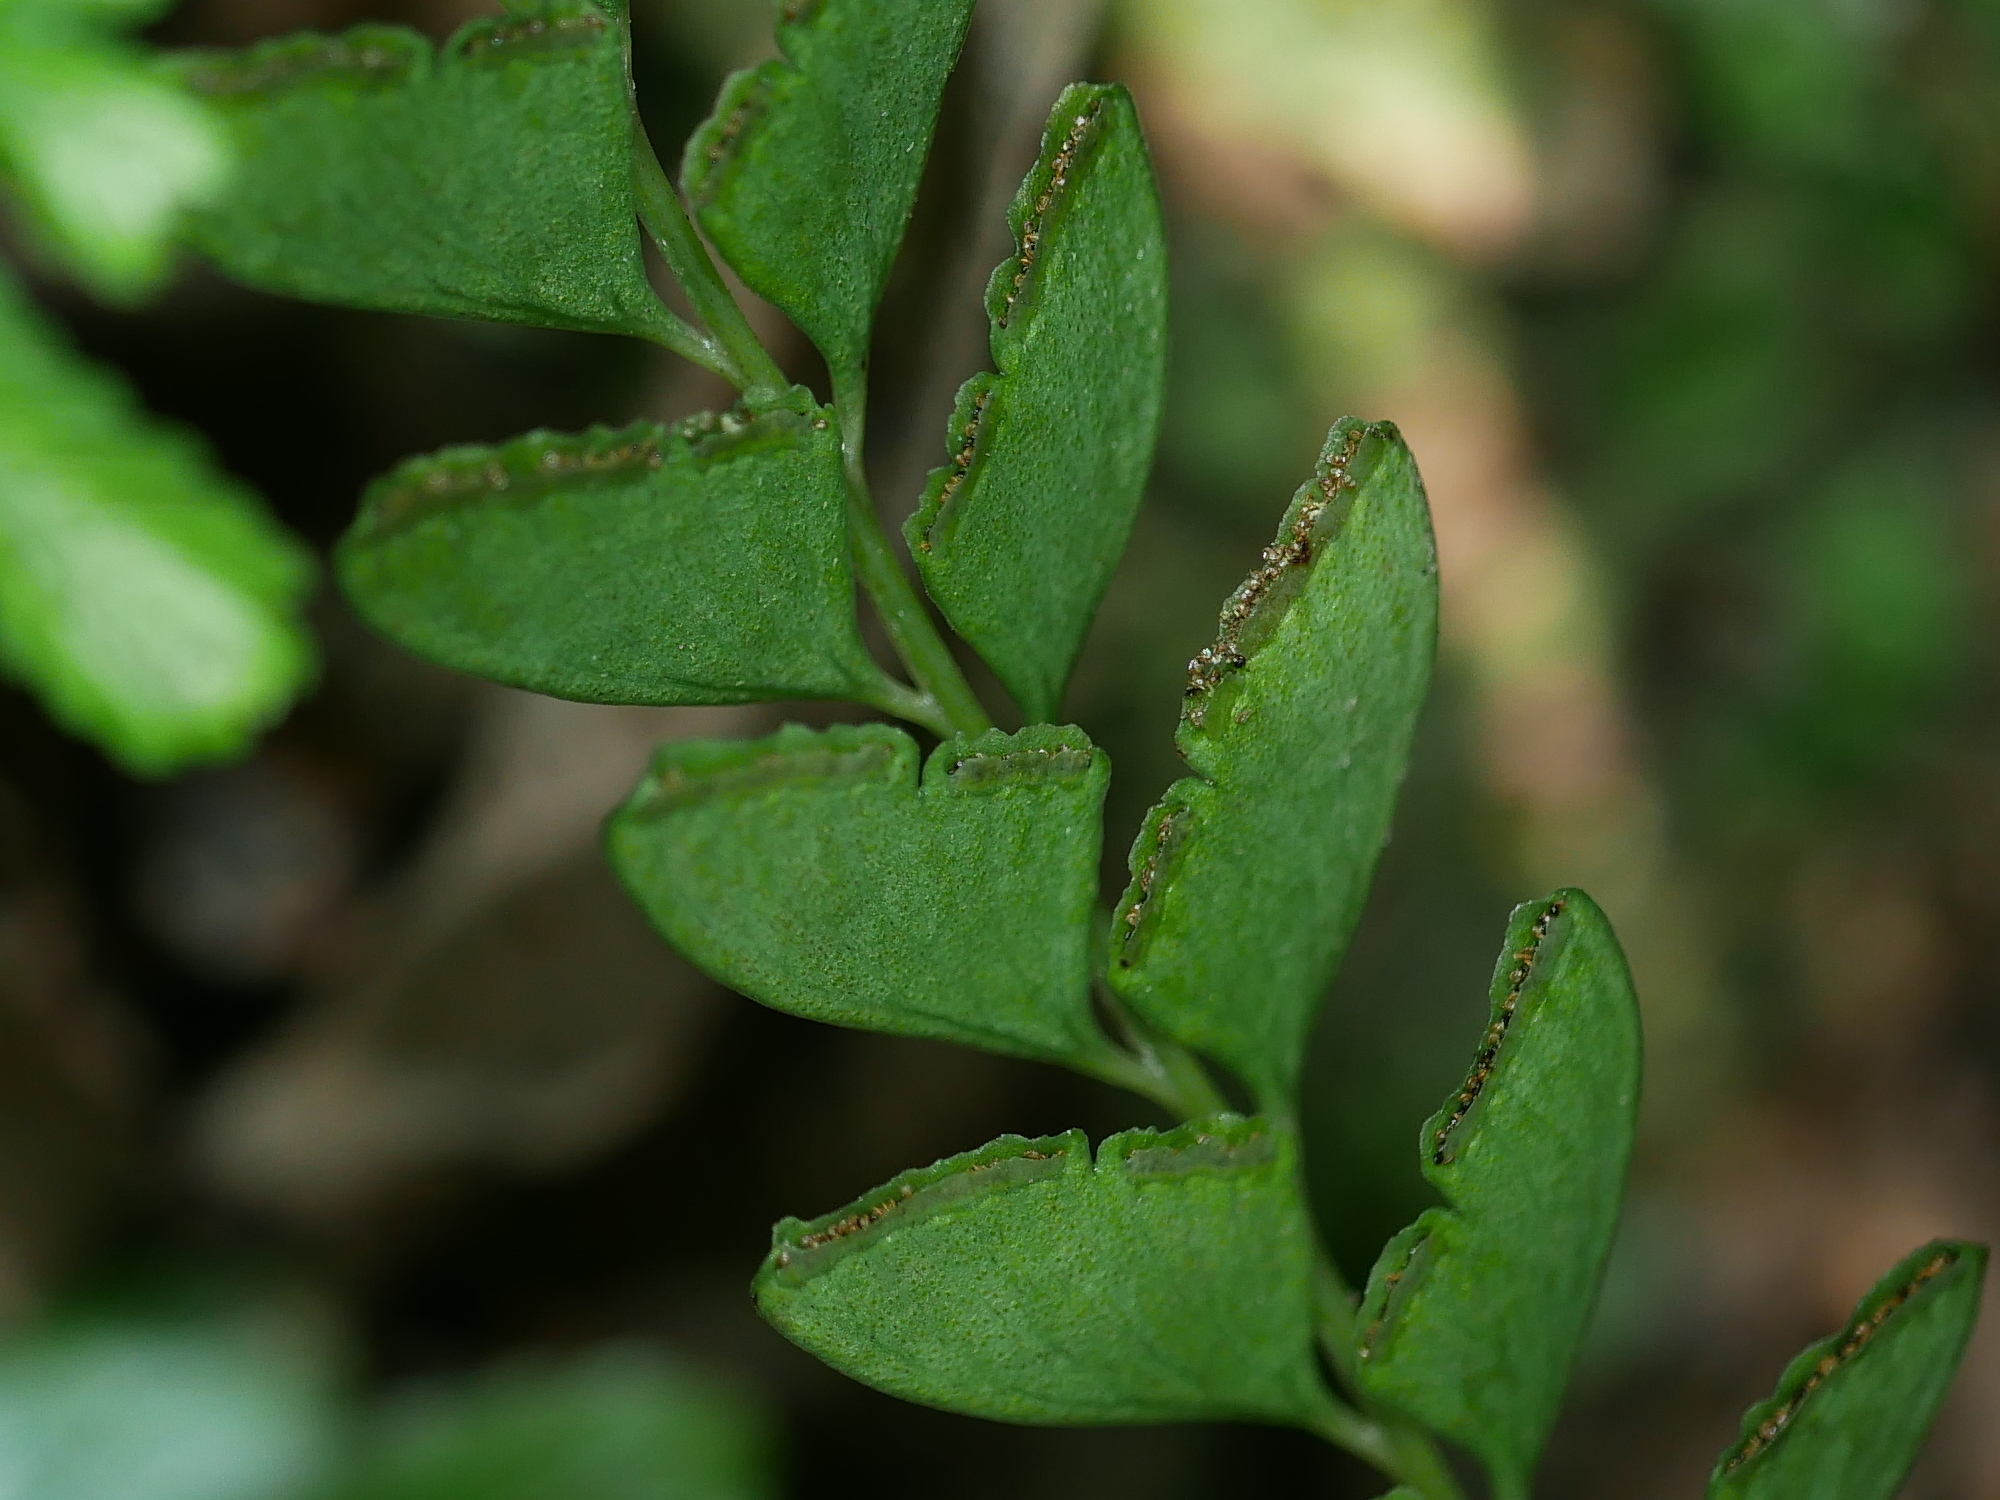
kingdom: Plantae
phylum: Tracheophyta
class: Polypodiopsida
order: Polypodiales
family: Lindsaeaceae
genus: Osmolindsaea
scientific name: Osmolindsaea odorata
